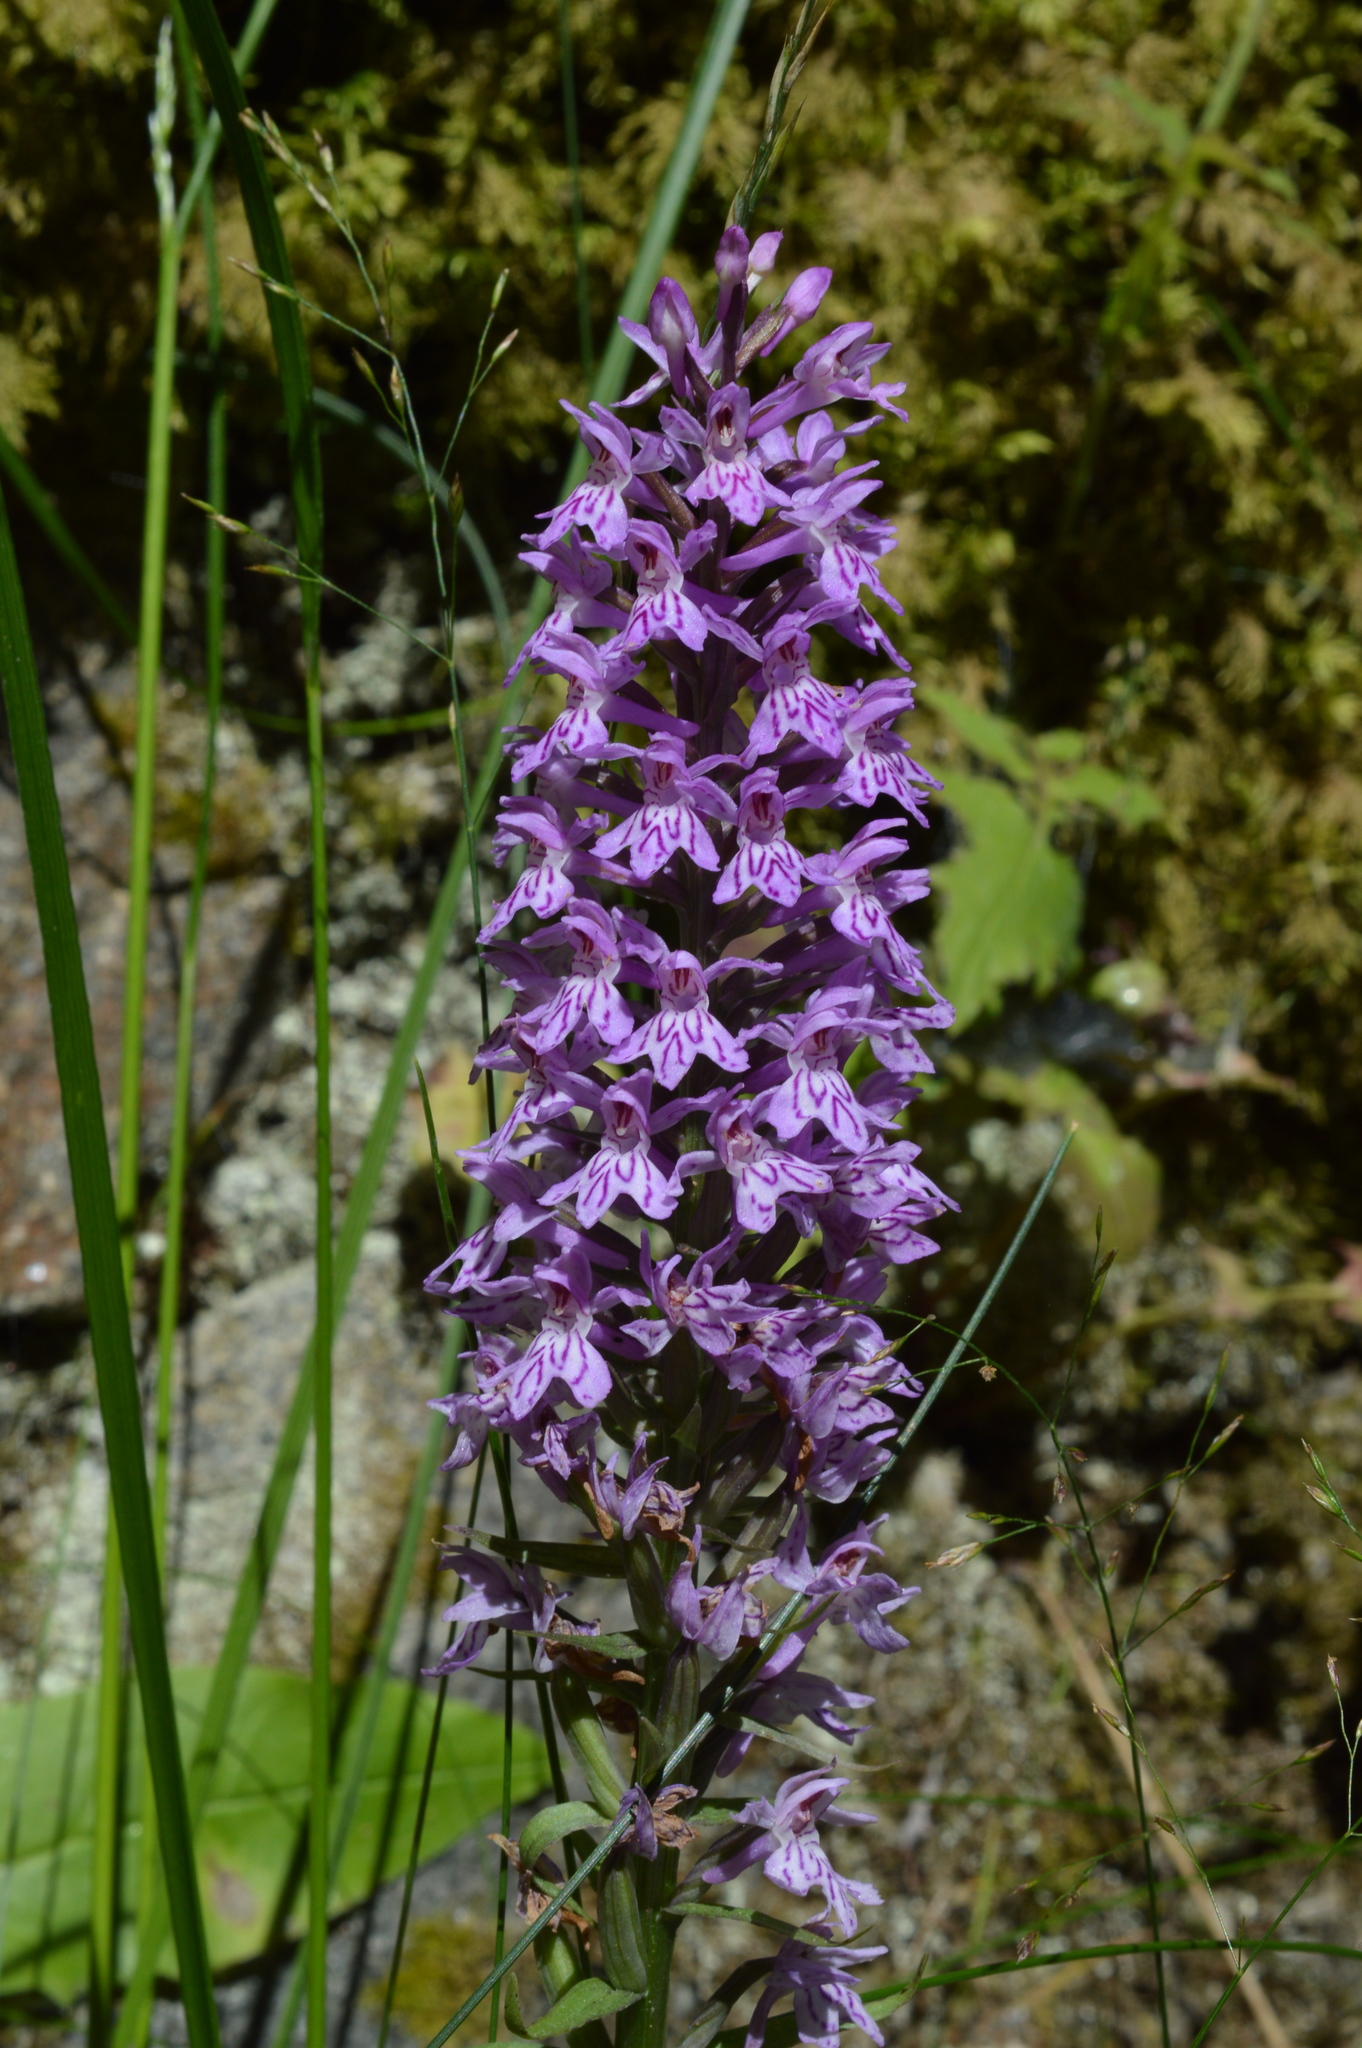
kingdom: Plantae
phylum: Tracheophyta
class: Liliopsida
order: Asparagales
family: Orchidaceae
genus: Dactylorhiza
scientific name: Dactylorhiza maculata
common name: Heath spotted-orchid
